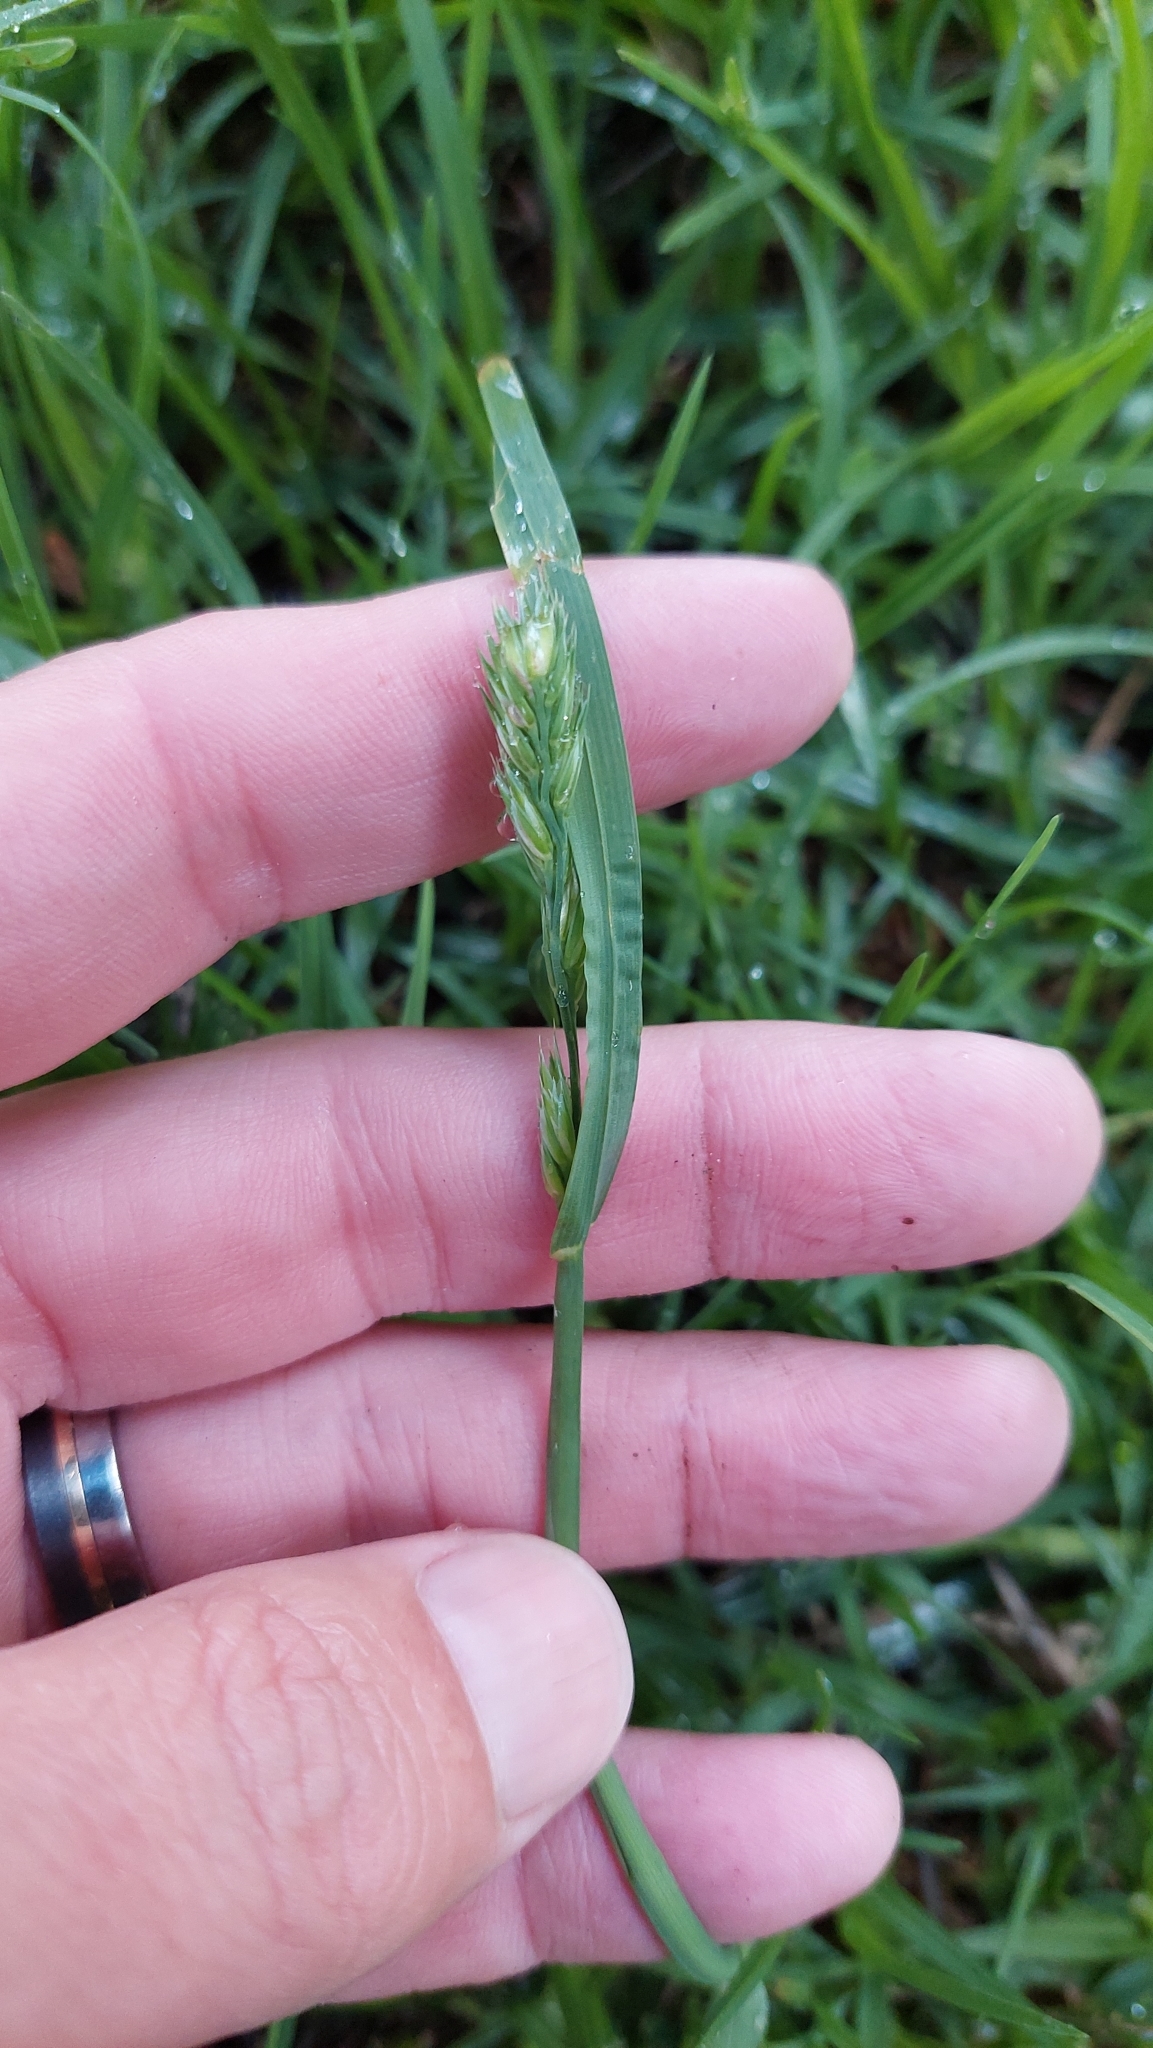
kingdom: Plantae
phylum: Tracheophyta
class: Liliopsida
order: Poales
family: Poaceae
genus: Dactylis
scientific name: Dactylis glomerata
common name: Orchardgrass
